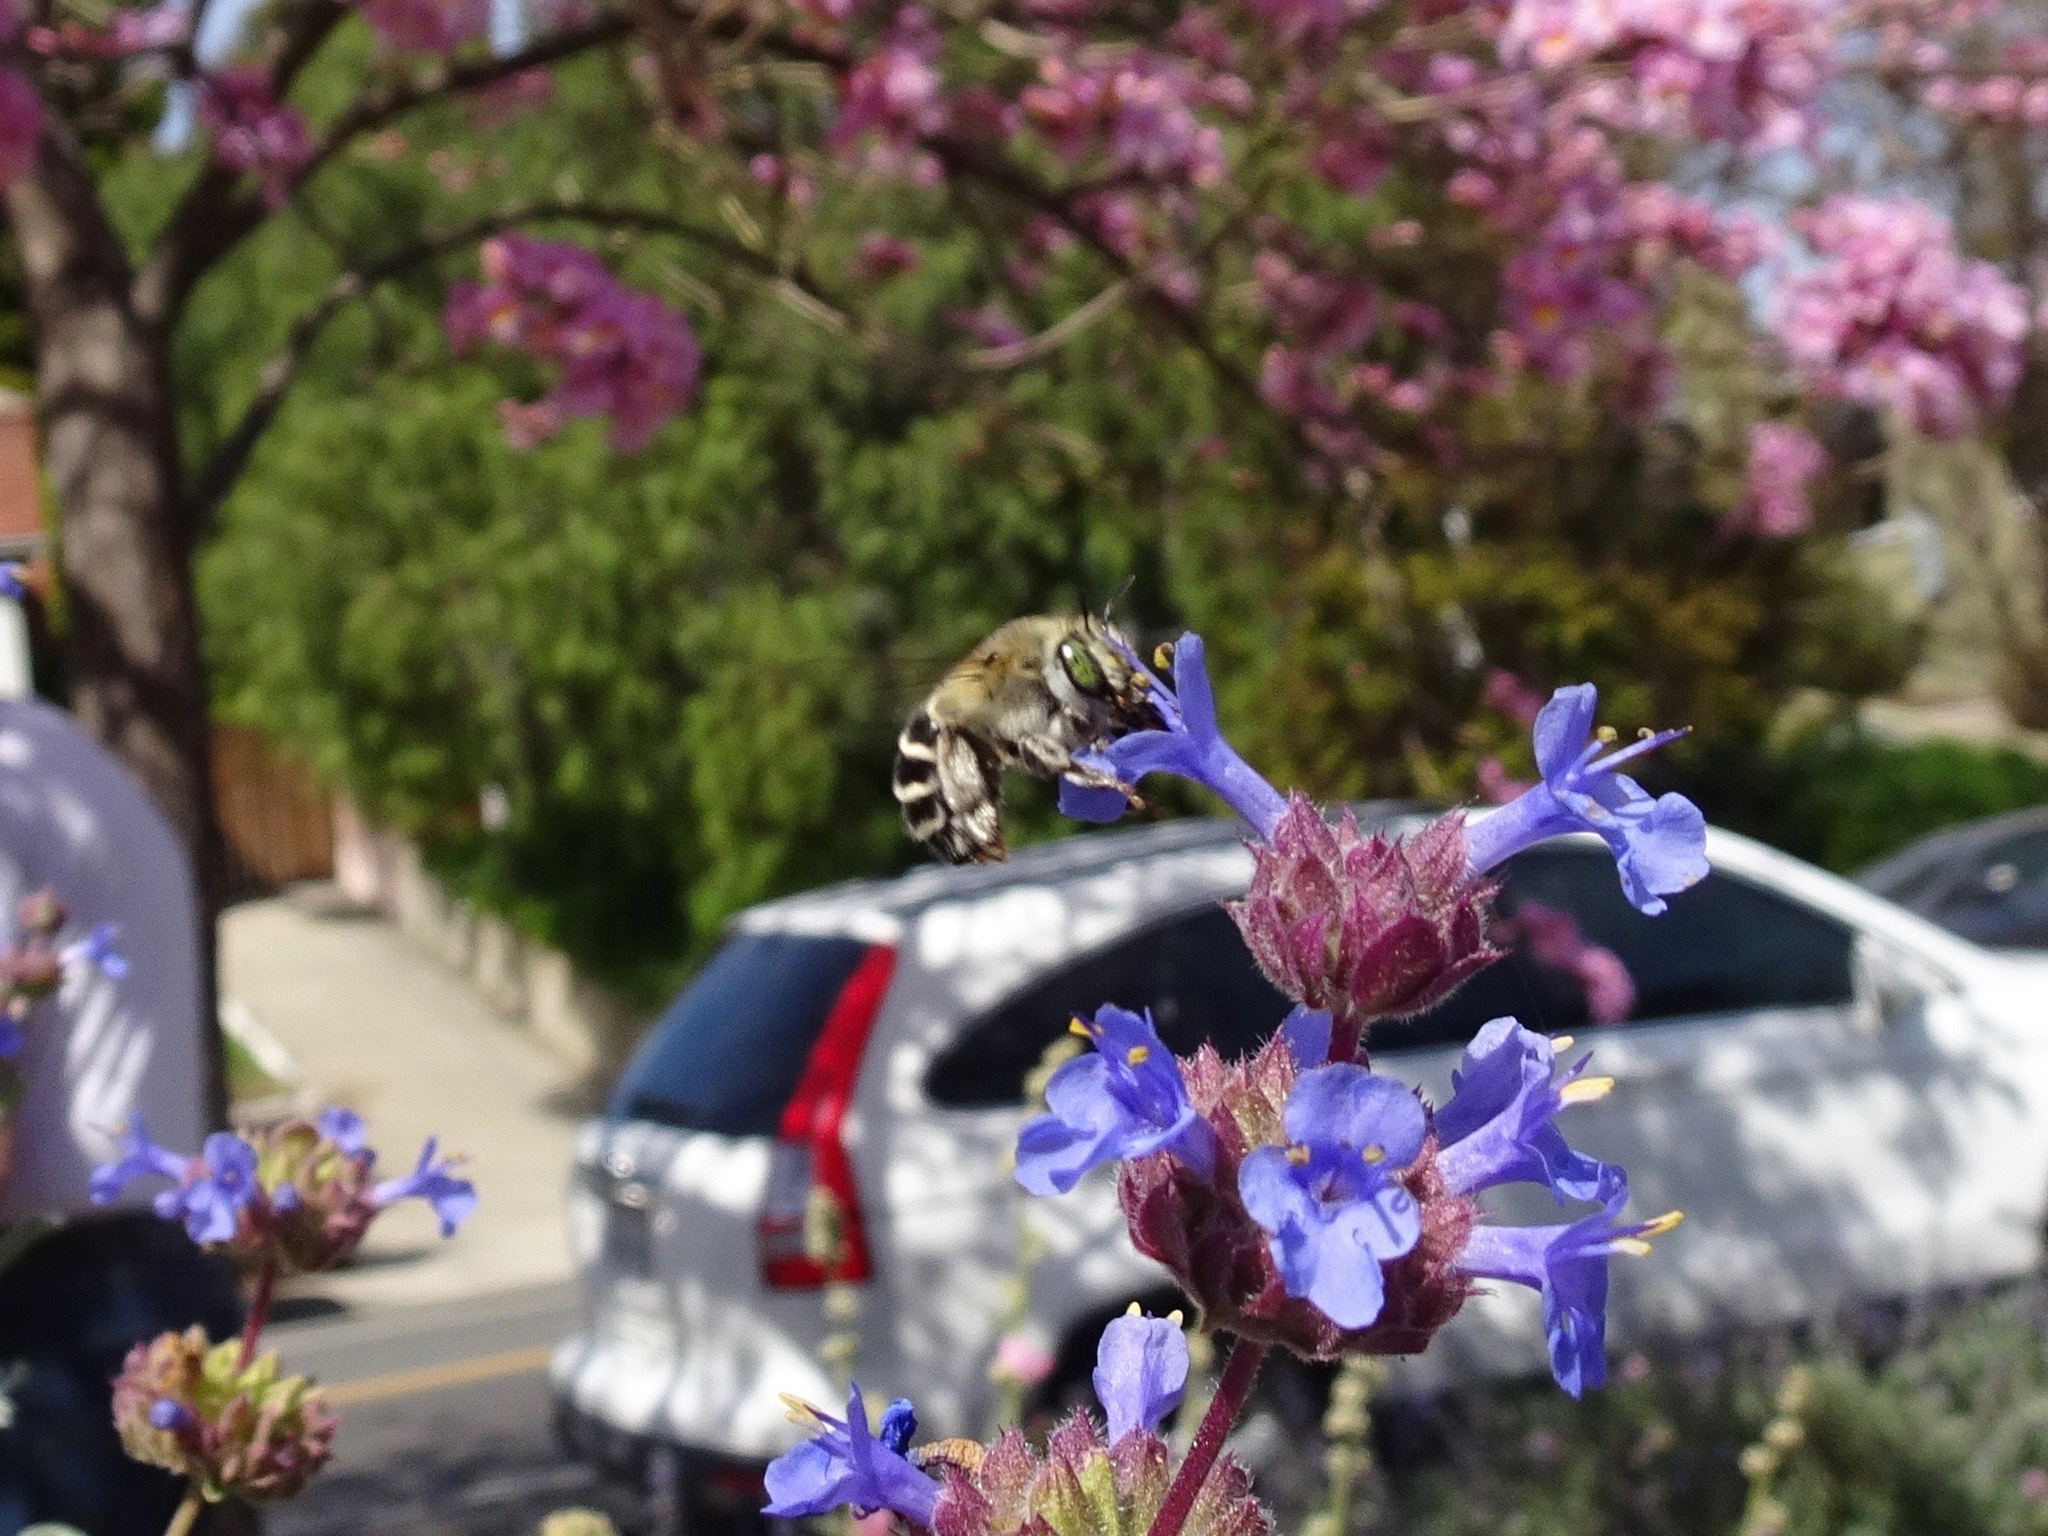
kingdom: Animalia
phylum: Arthropoda
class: Insecta
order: Hymenoptera
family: Apidae
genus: Anthophora
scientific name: Anthophora californica
